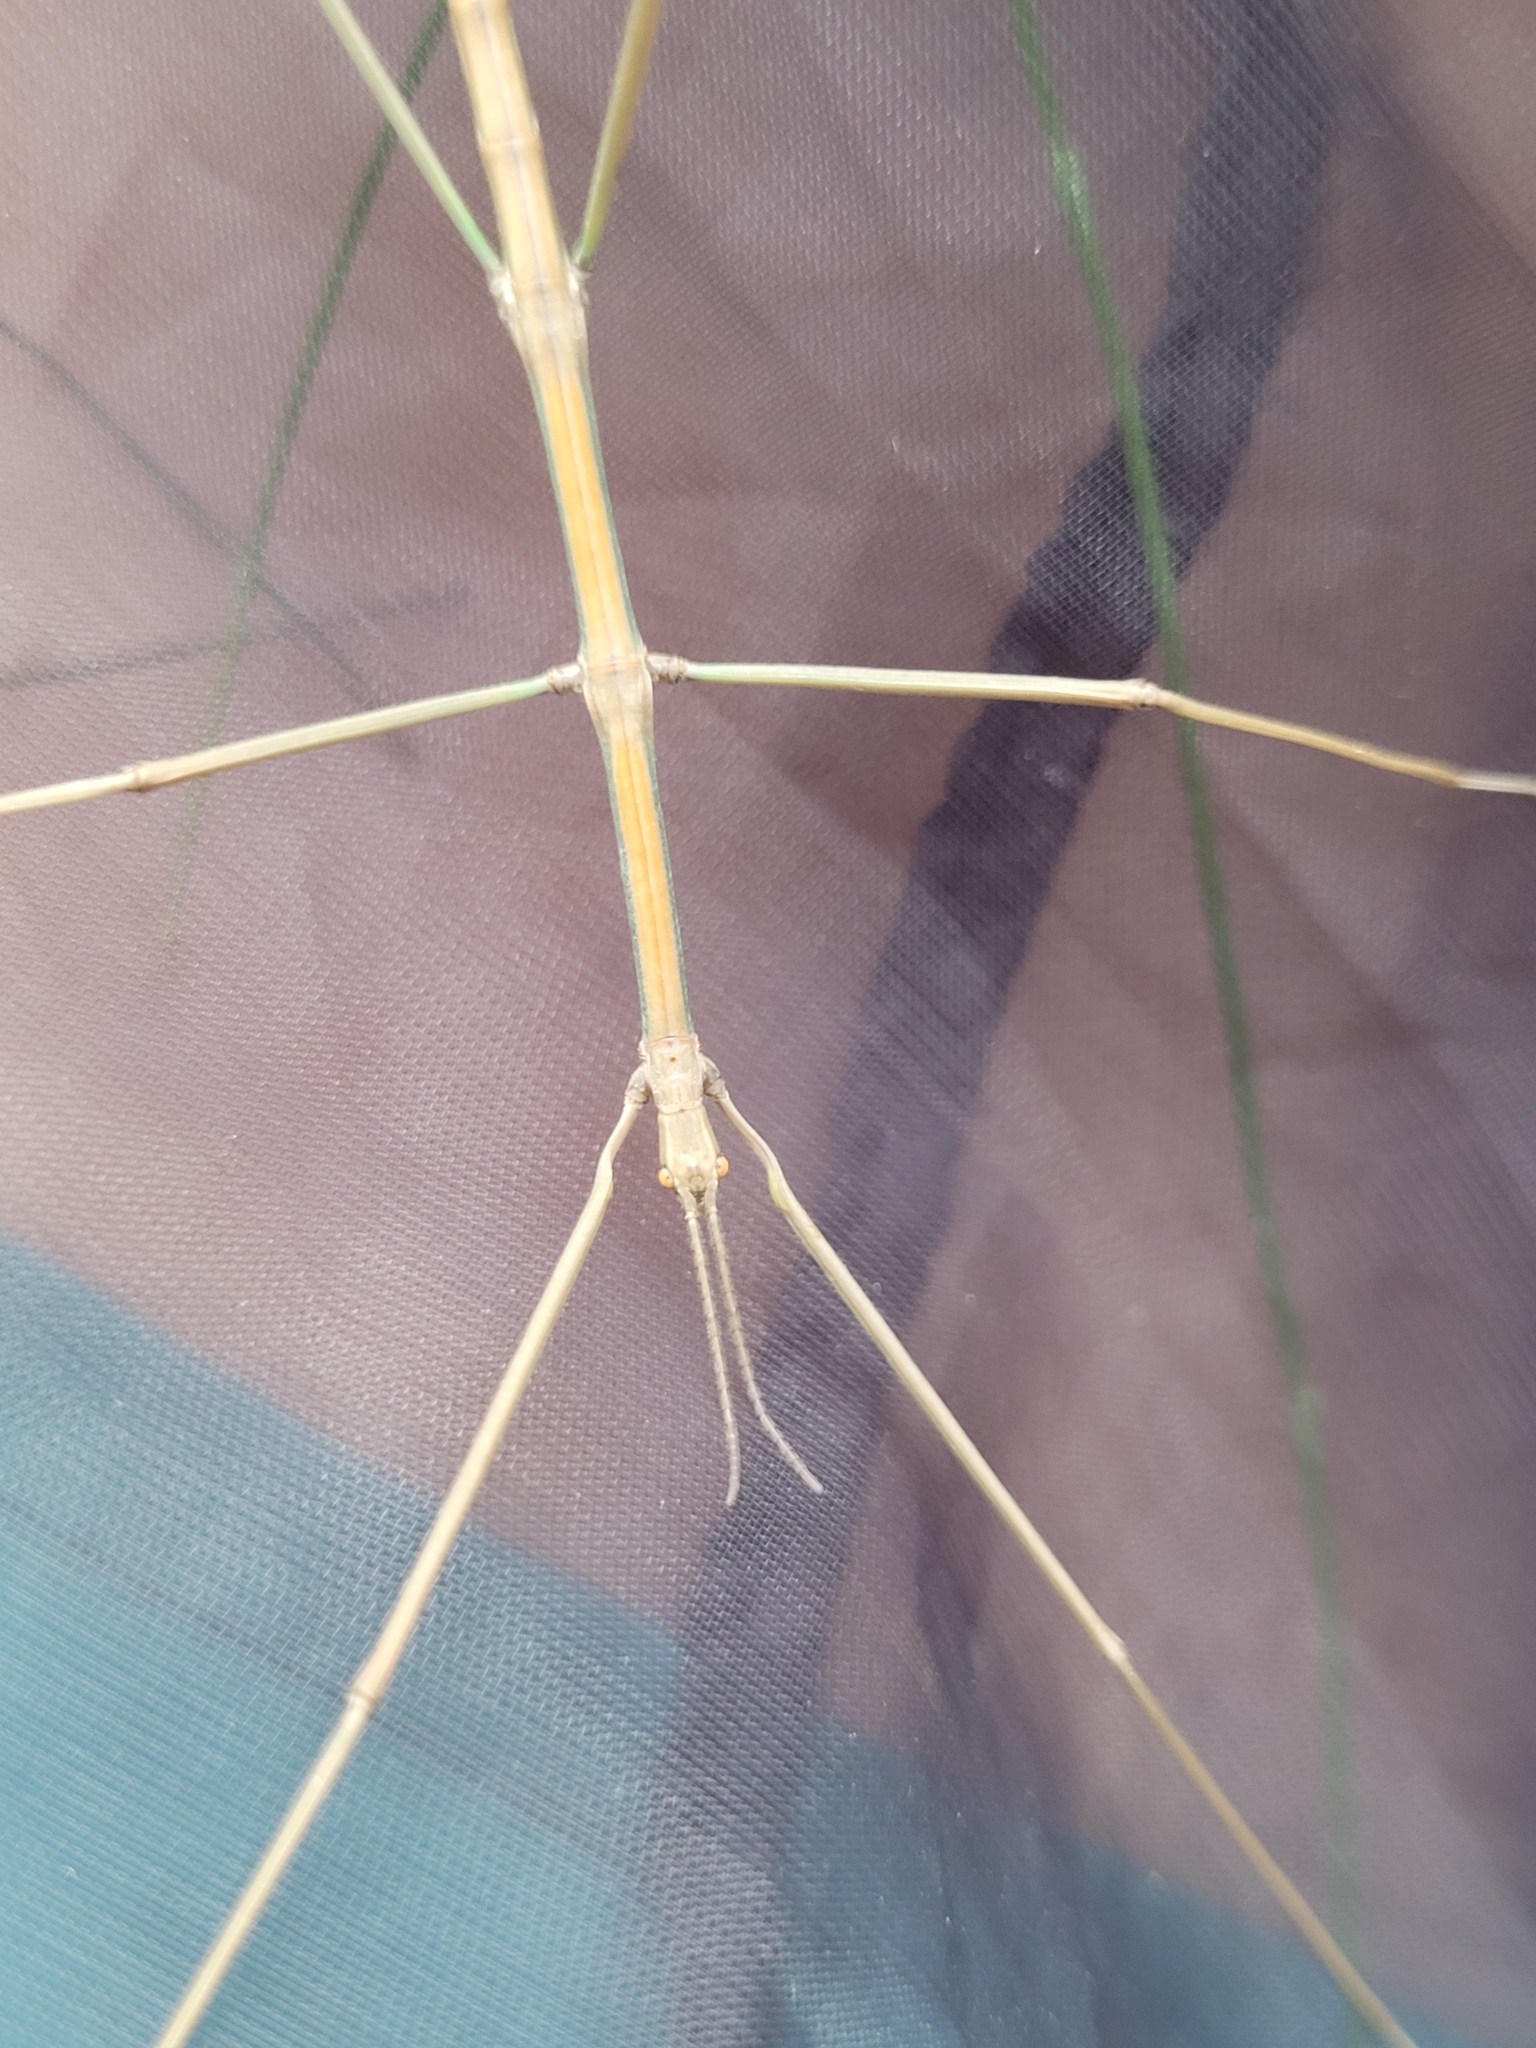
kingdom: Animalia
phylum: Arthropoda
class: Insecta
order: Phasmida
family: Bacillidae
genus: Bacillus
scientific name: Bacillus rossius
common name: Corsican stick-insect
